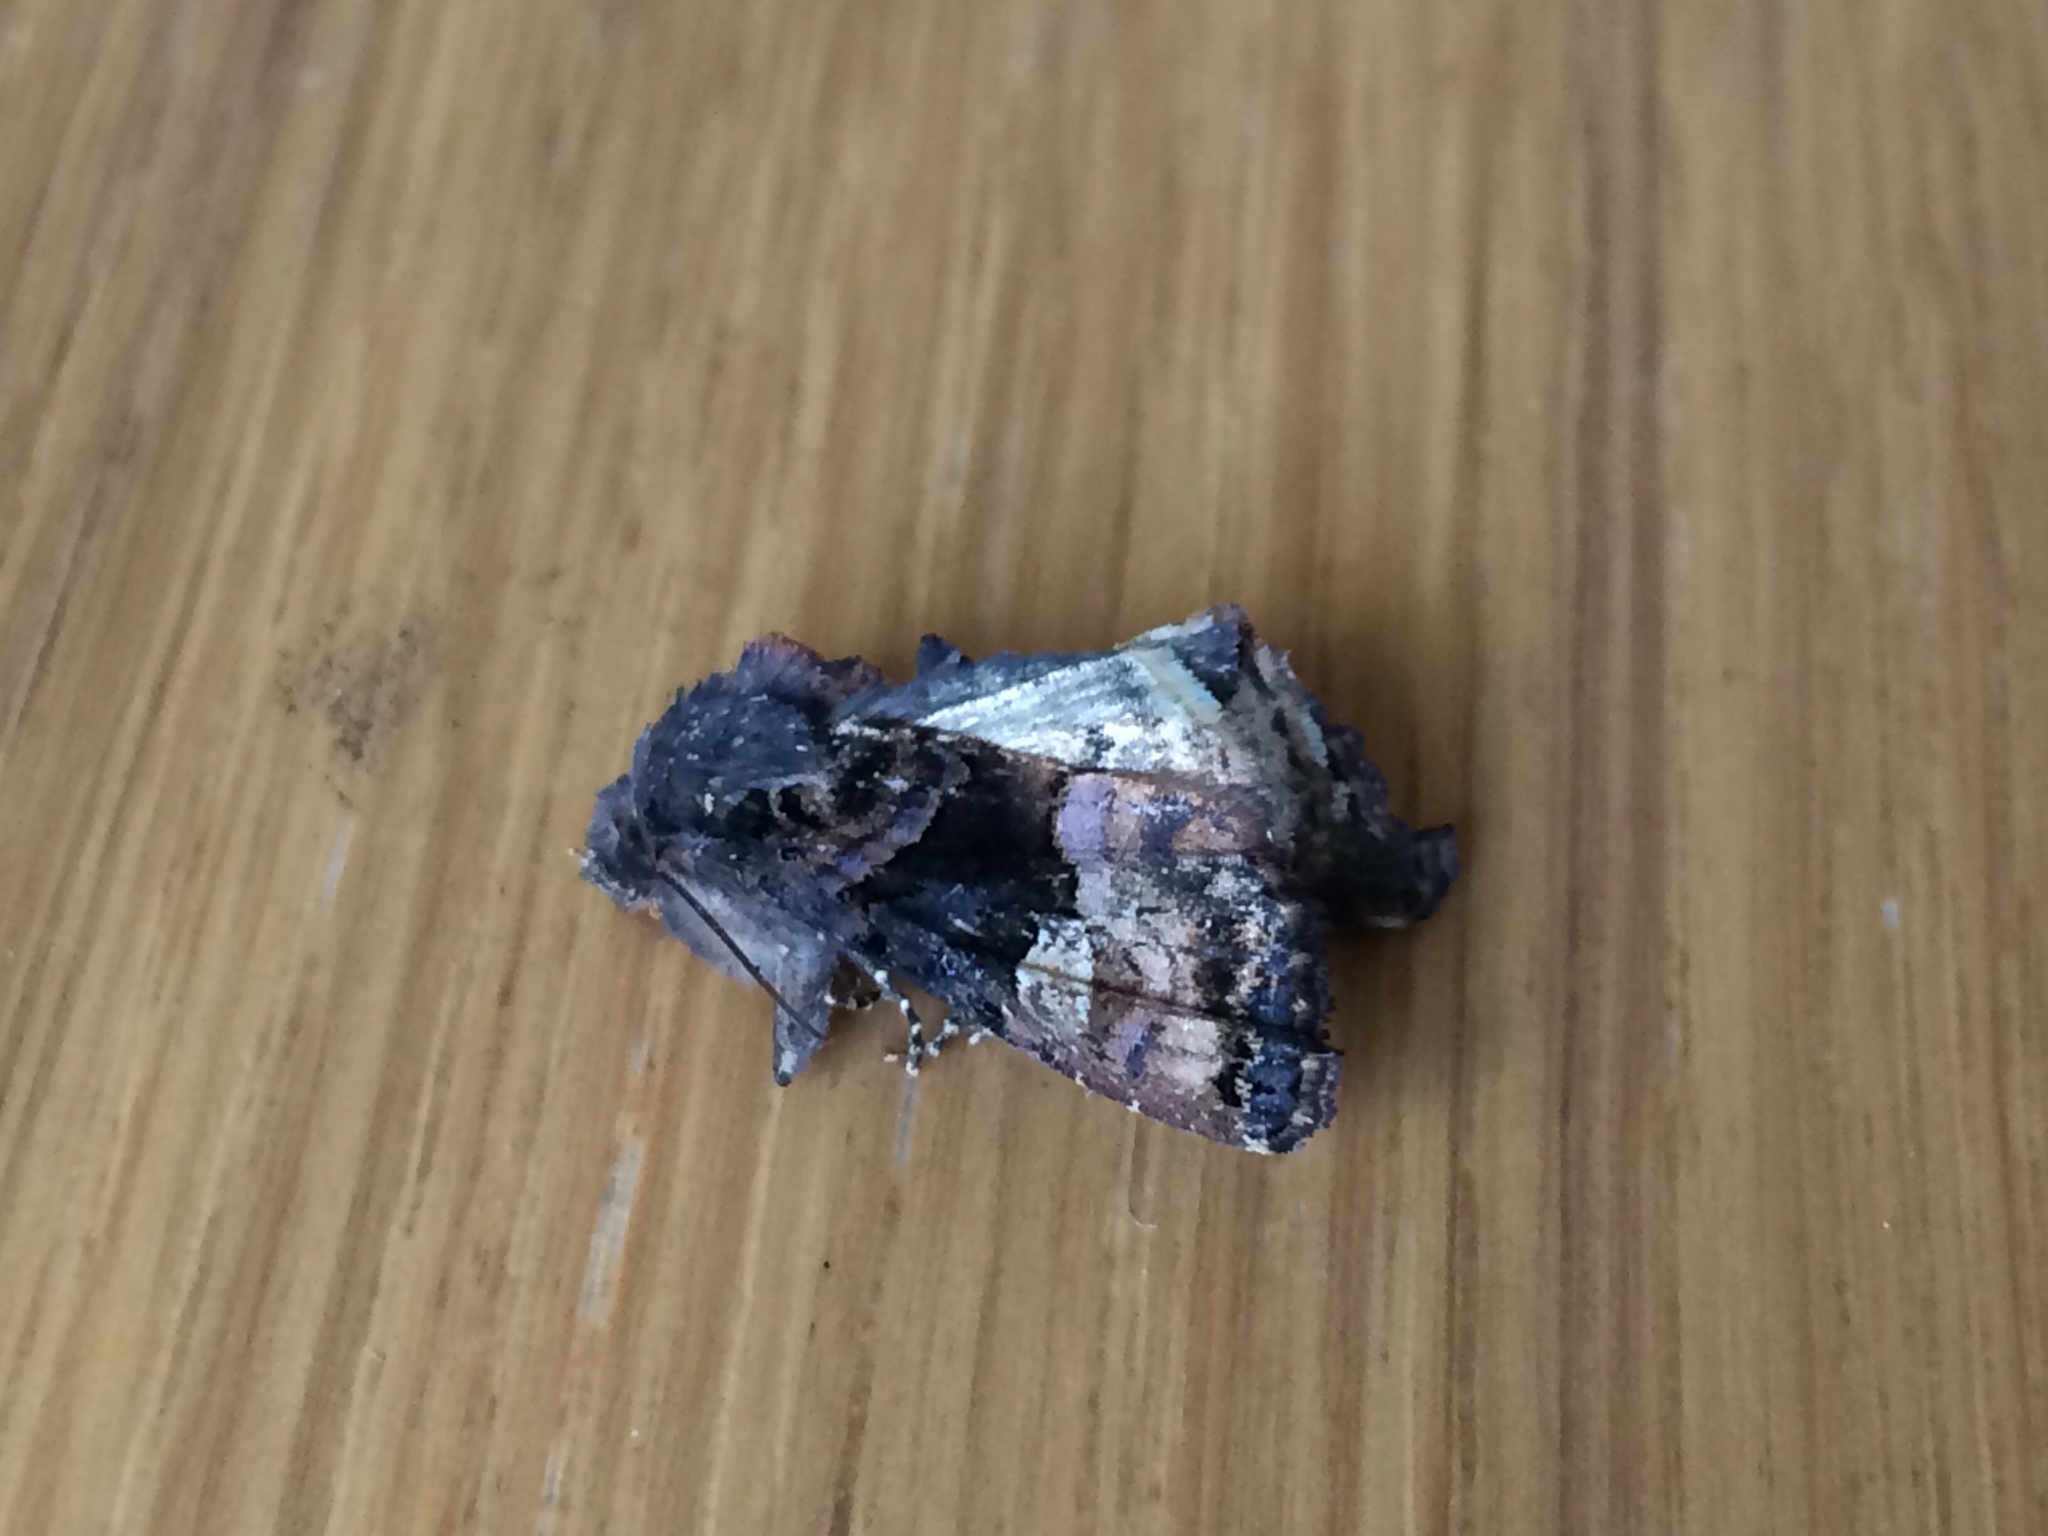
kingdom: Animalia
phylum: Arthropoda
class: Insecta
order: Lepidoptera
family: Noctuidae
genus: Euplexia
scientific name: Euplexia lucipara
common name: Small angle shades
